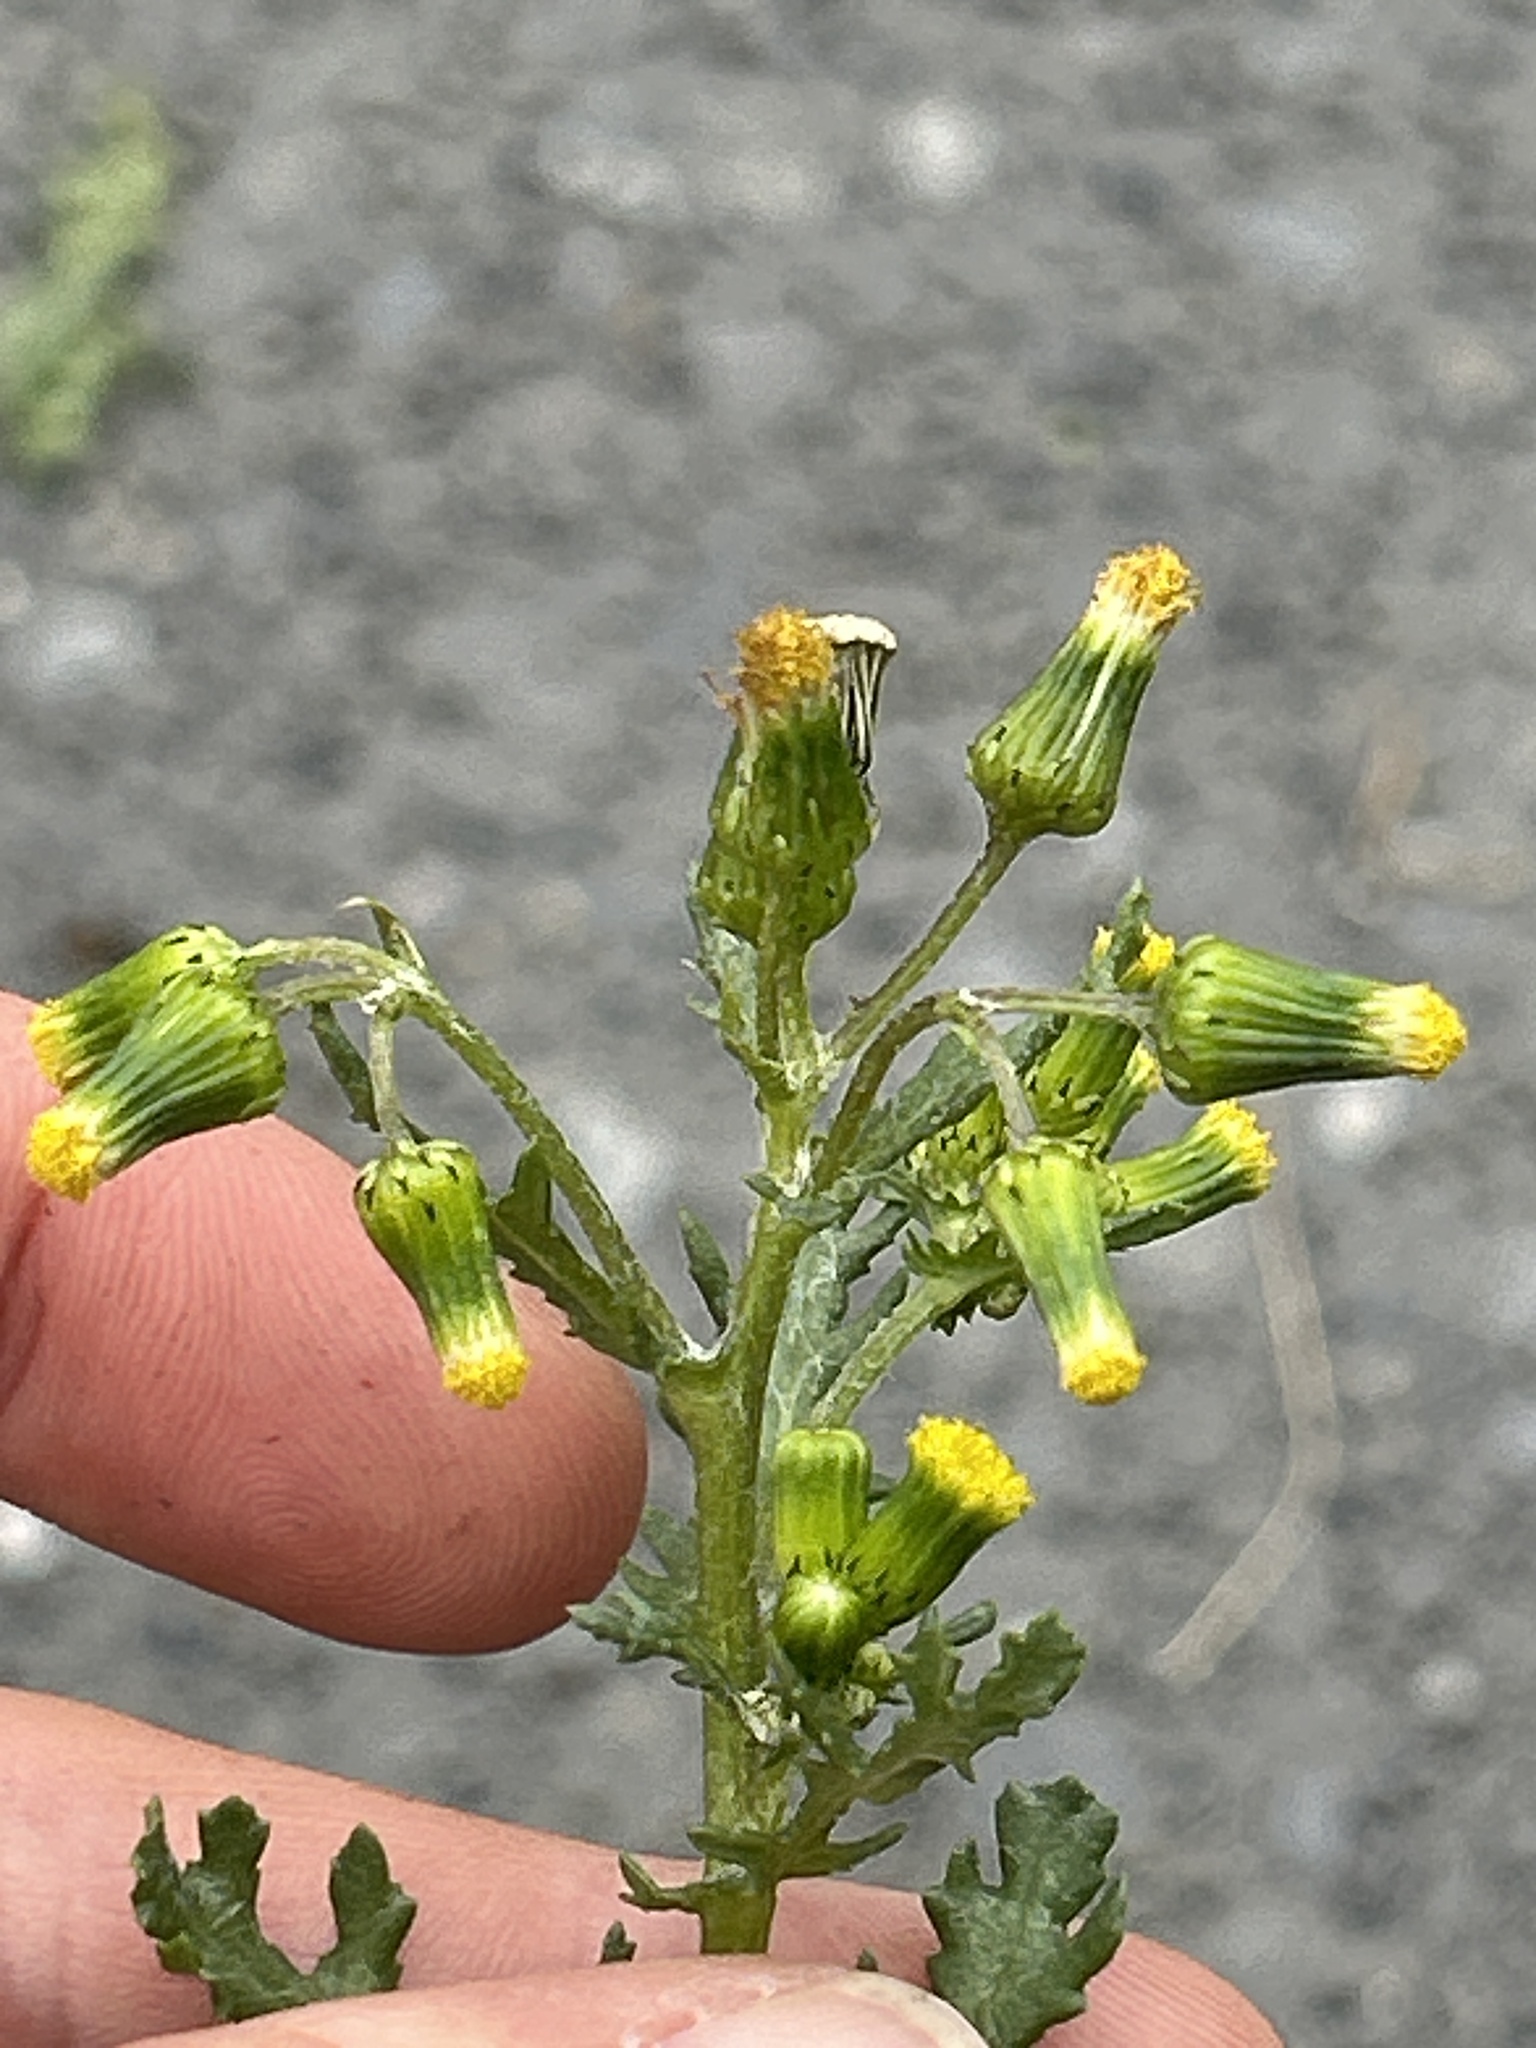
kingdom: Plantae
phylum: Tracheophyta
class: Magnoliopsida
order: Asterales
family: Asteraceae
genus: Senecio
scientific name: Senecio vulgaris
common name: Old-man-in-the-spring
